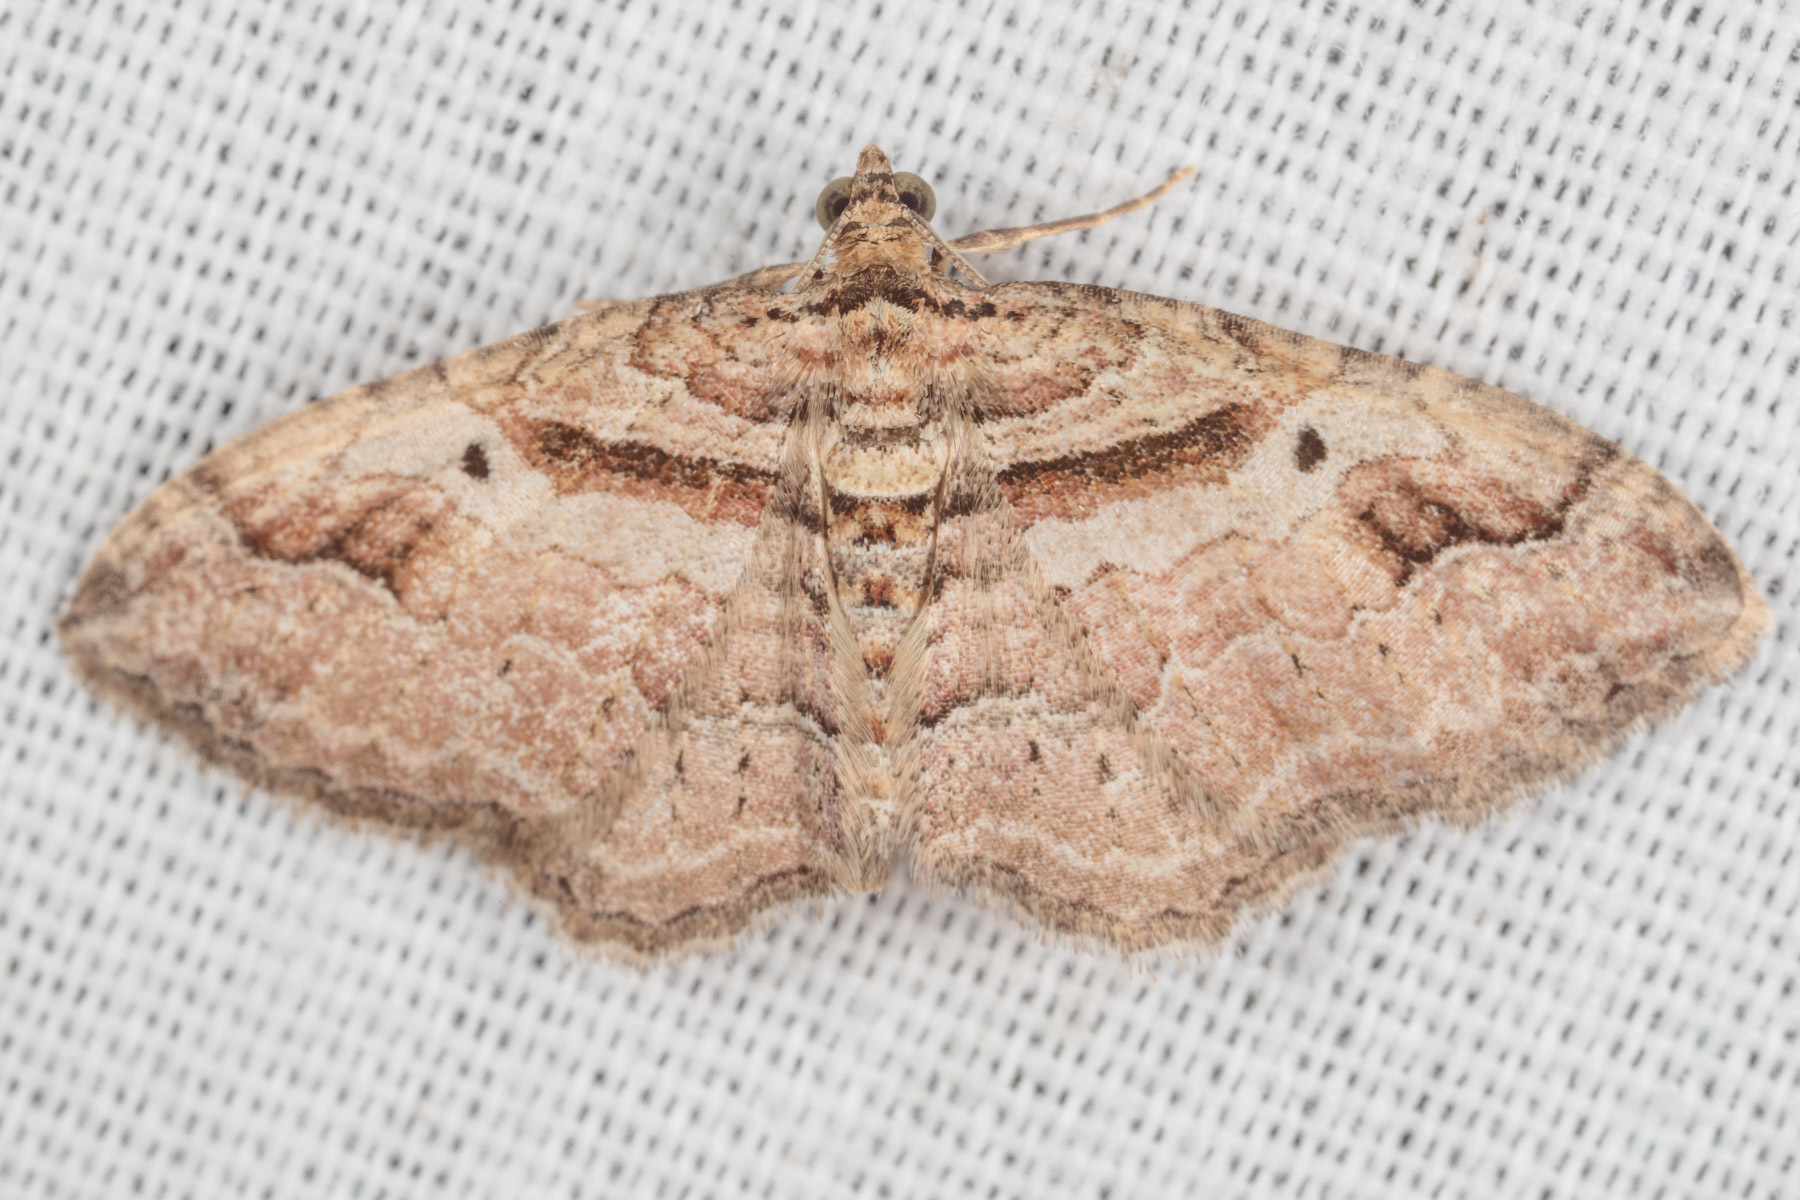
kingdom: Animalia
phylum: Arthropoda
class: Insecta
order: Lepidoptera
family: Geometridae
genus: Costaconvexa
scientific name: Costaconvexa centrostrigaria
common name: Bent-line carpet
